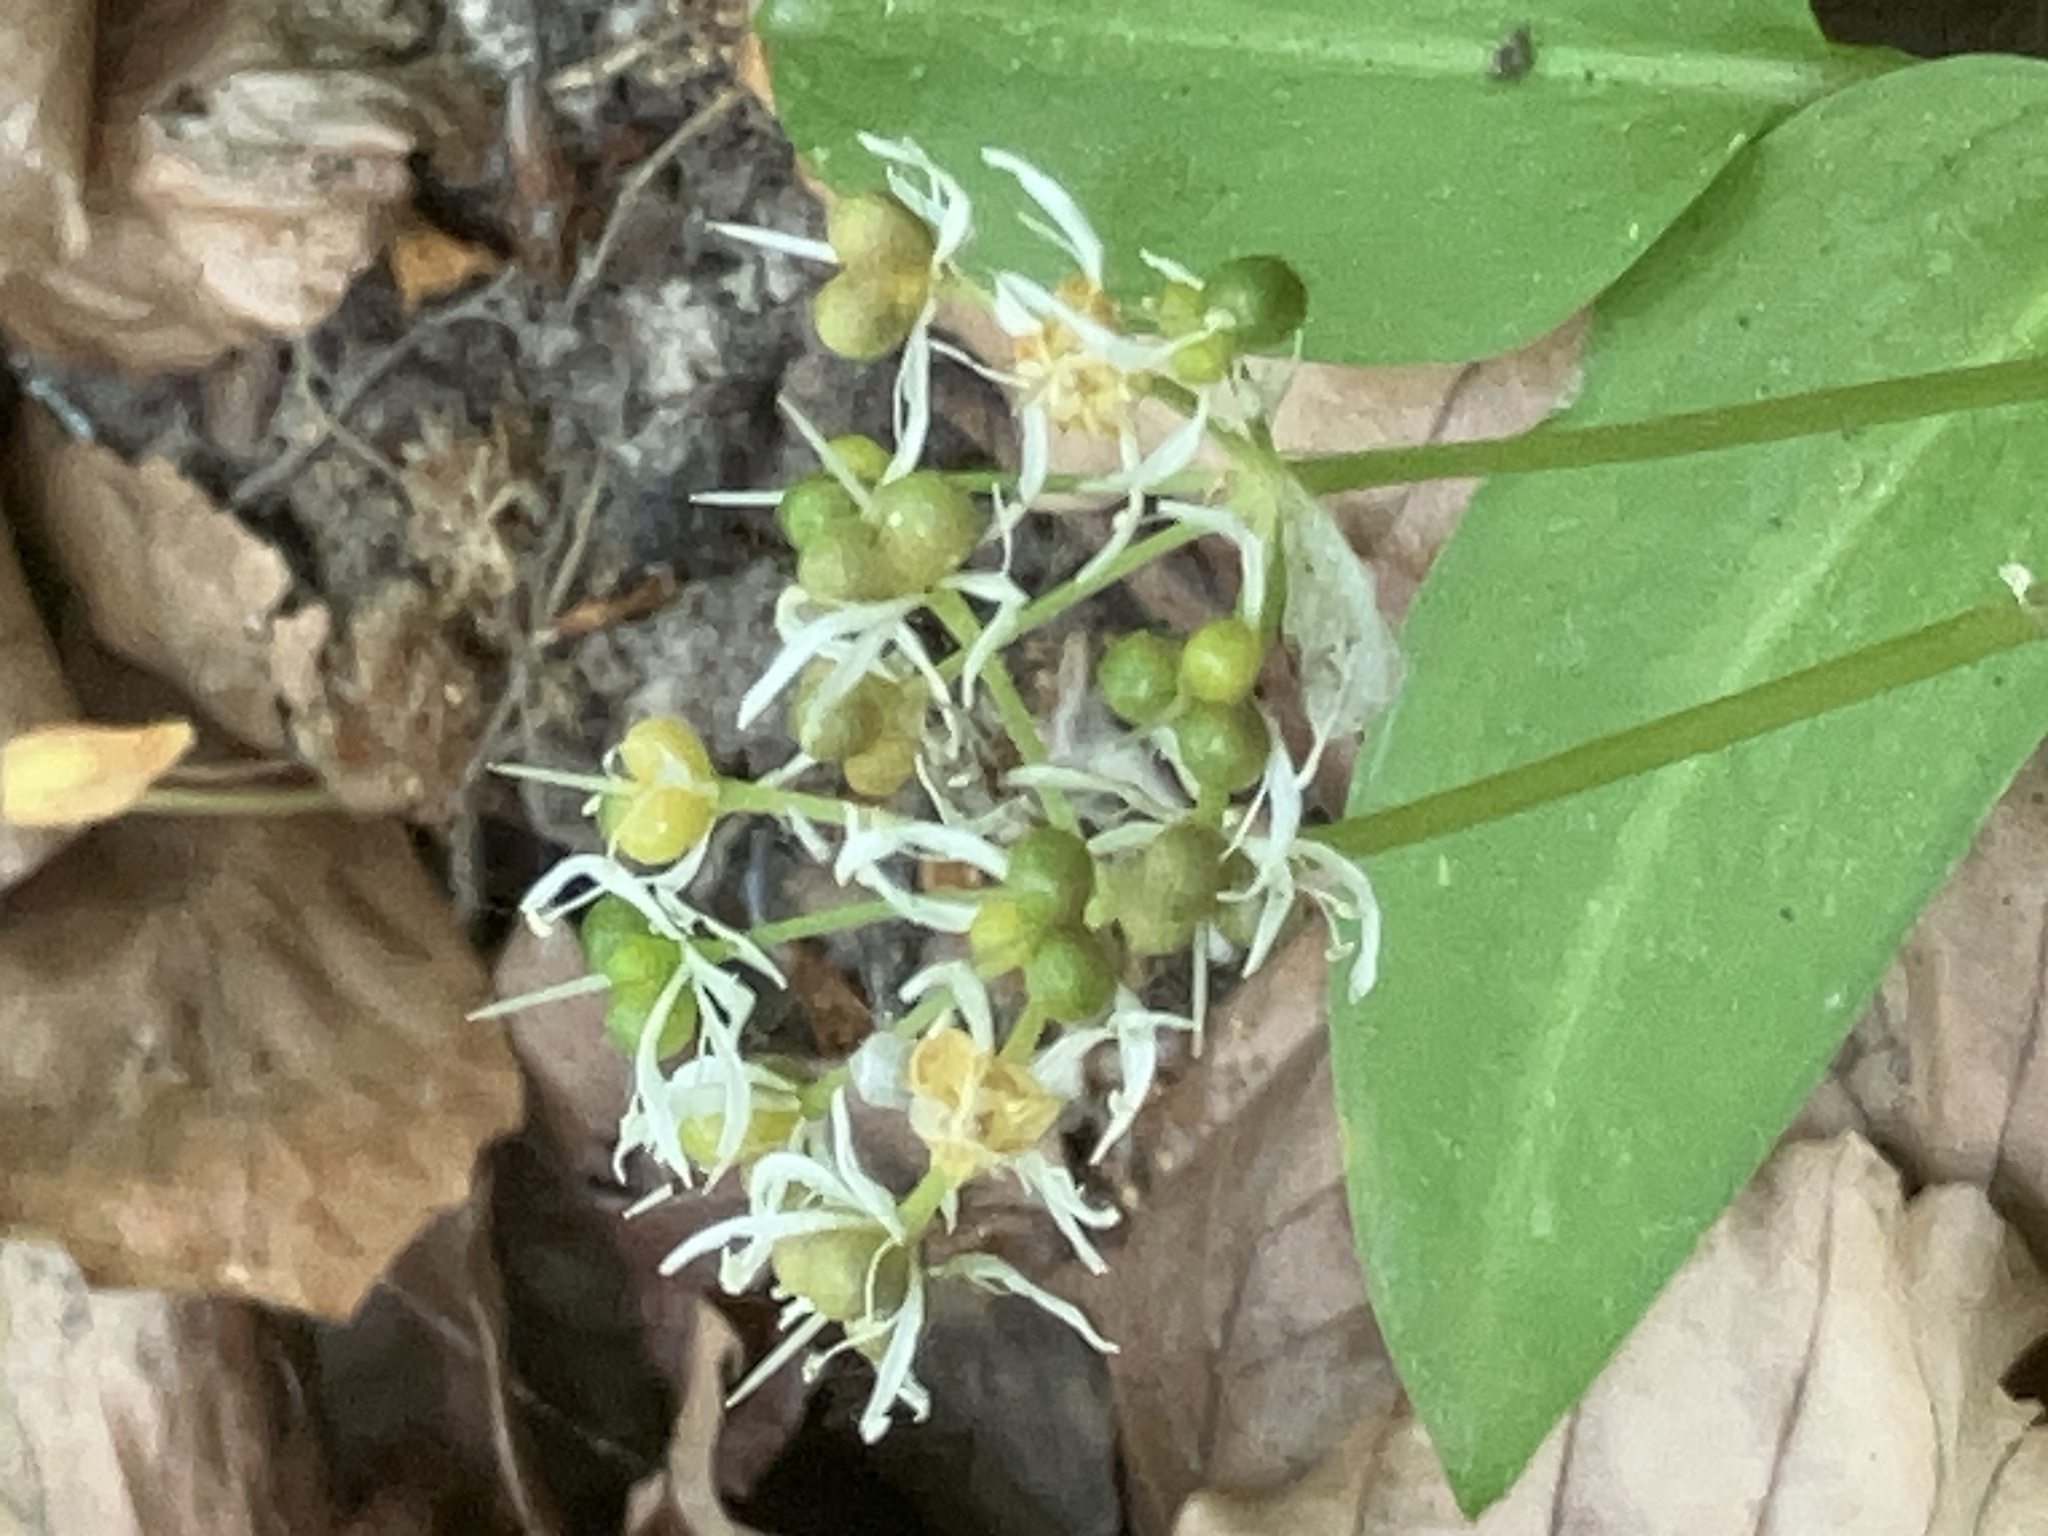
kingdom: Plantae
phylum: Tracheophyta
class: Liliopsida
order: Asparagales
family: Amaryllidaceae
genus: Allium
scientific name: Allium ursinum
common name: Ramsons
